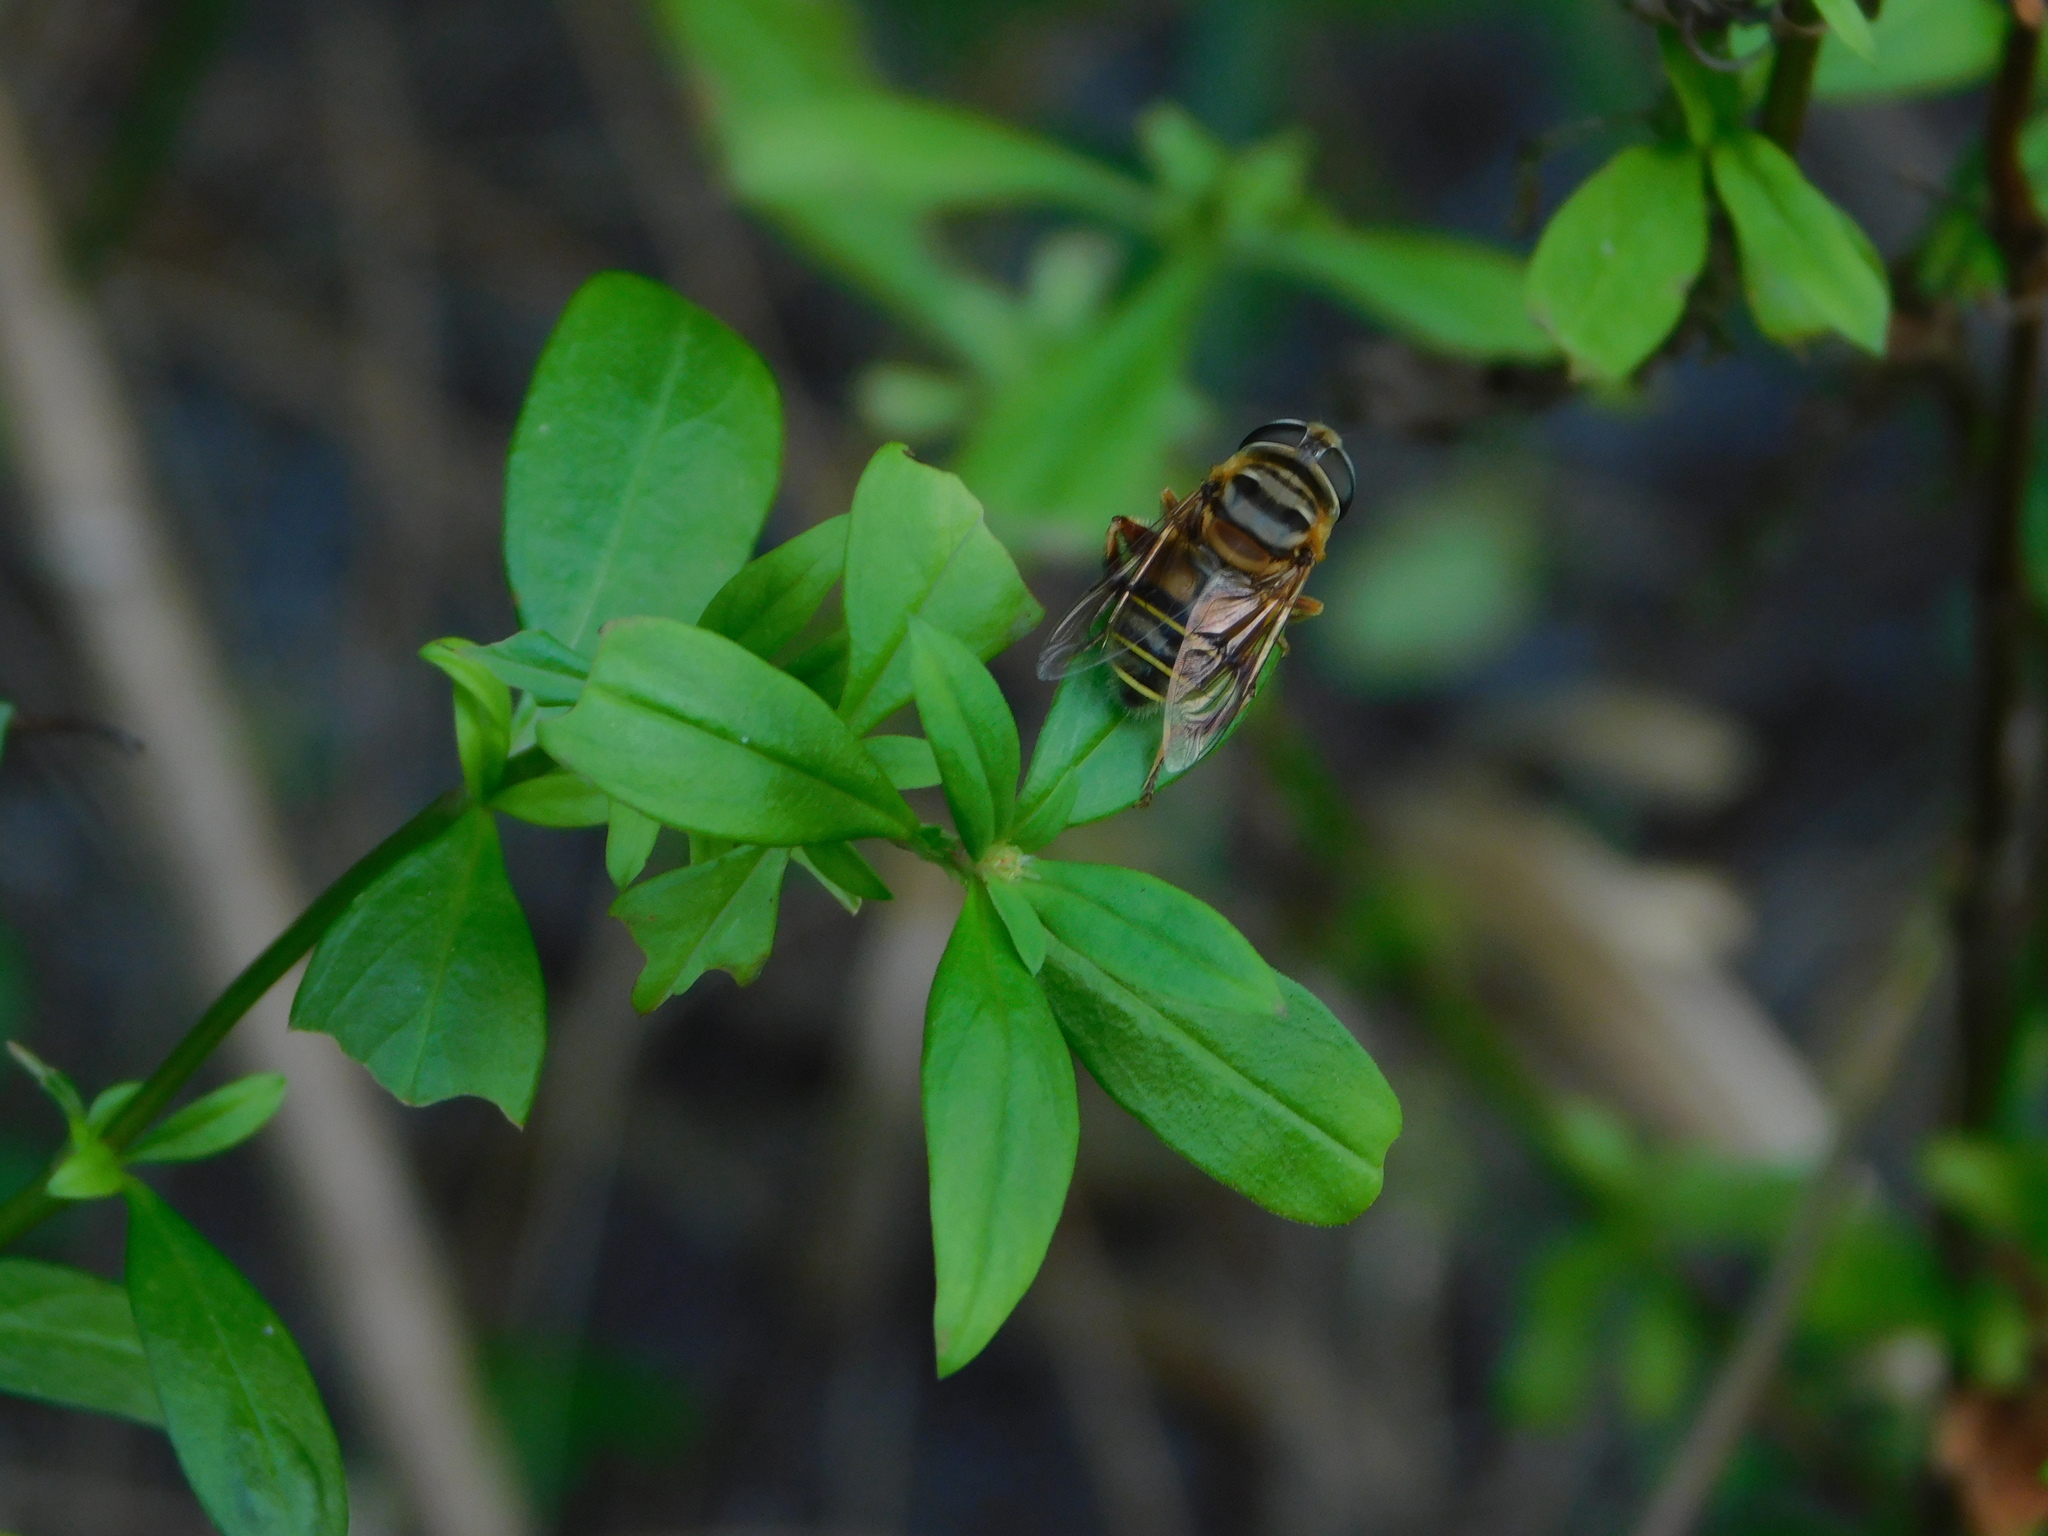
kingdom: Animalia
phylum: Arthropoda
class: Insecta
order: Diptera
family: Syrphidae
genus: Palpada
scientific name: Palpada vinetorum
